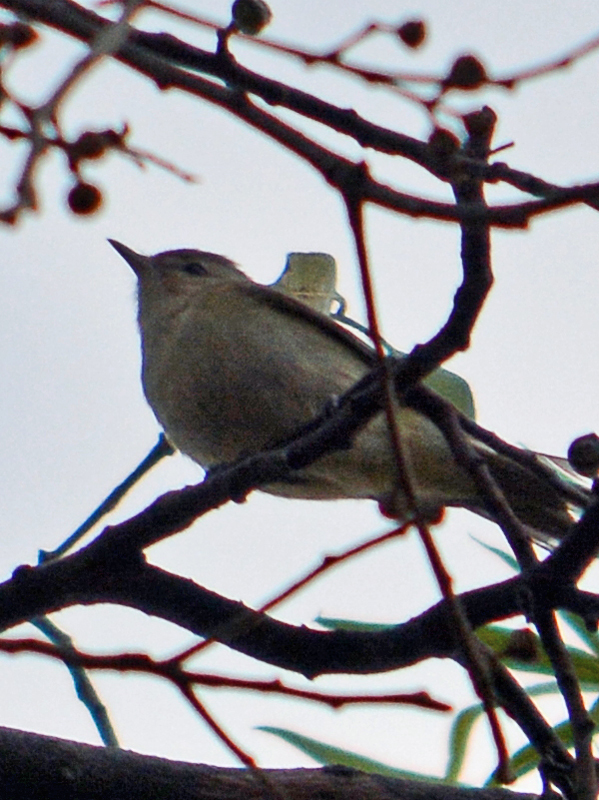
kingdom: Animalia
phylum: Chordata
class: Aves
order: Passeriformes
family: Vireonidae
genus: Vireo
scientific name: Vireo gilvus
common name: Warbling vireo
